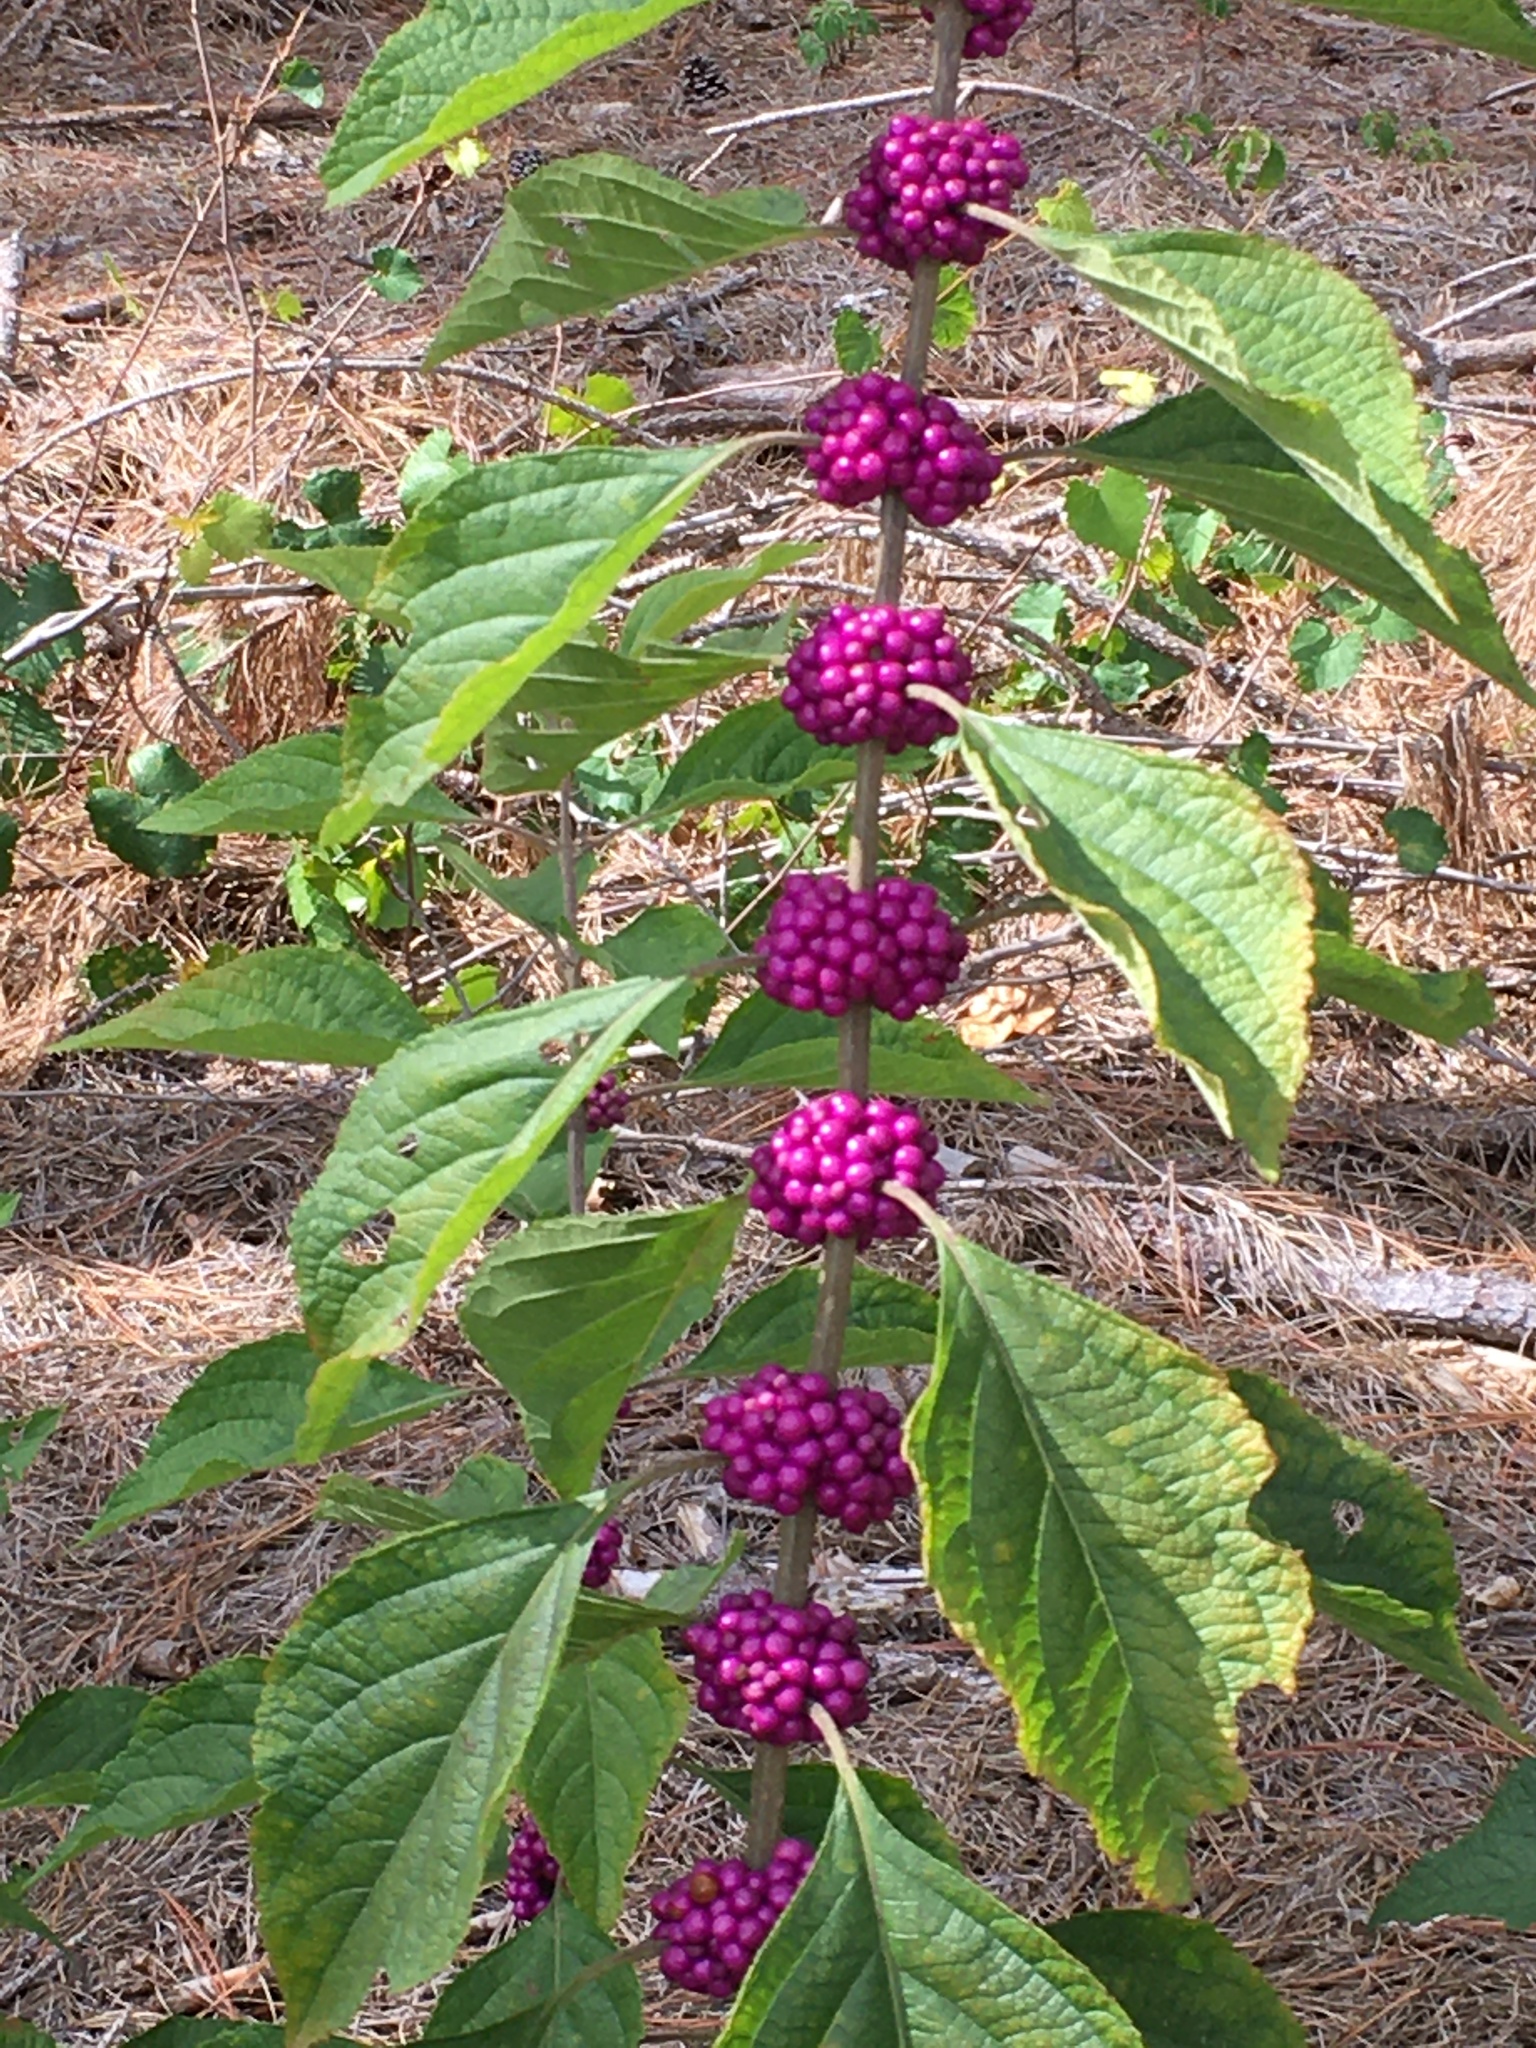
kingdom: Plantae
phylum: Tracheophyta
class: Magnoliopsida
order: Lamiales
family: Lamiaceae
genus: Callicarpa
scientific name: Callicarpa americana
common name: American beautyberry
